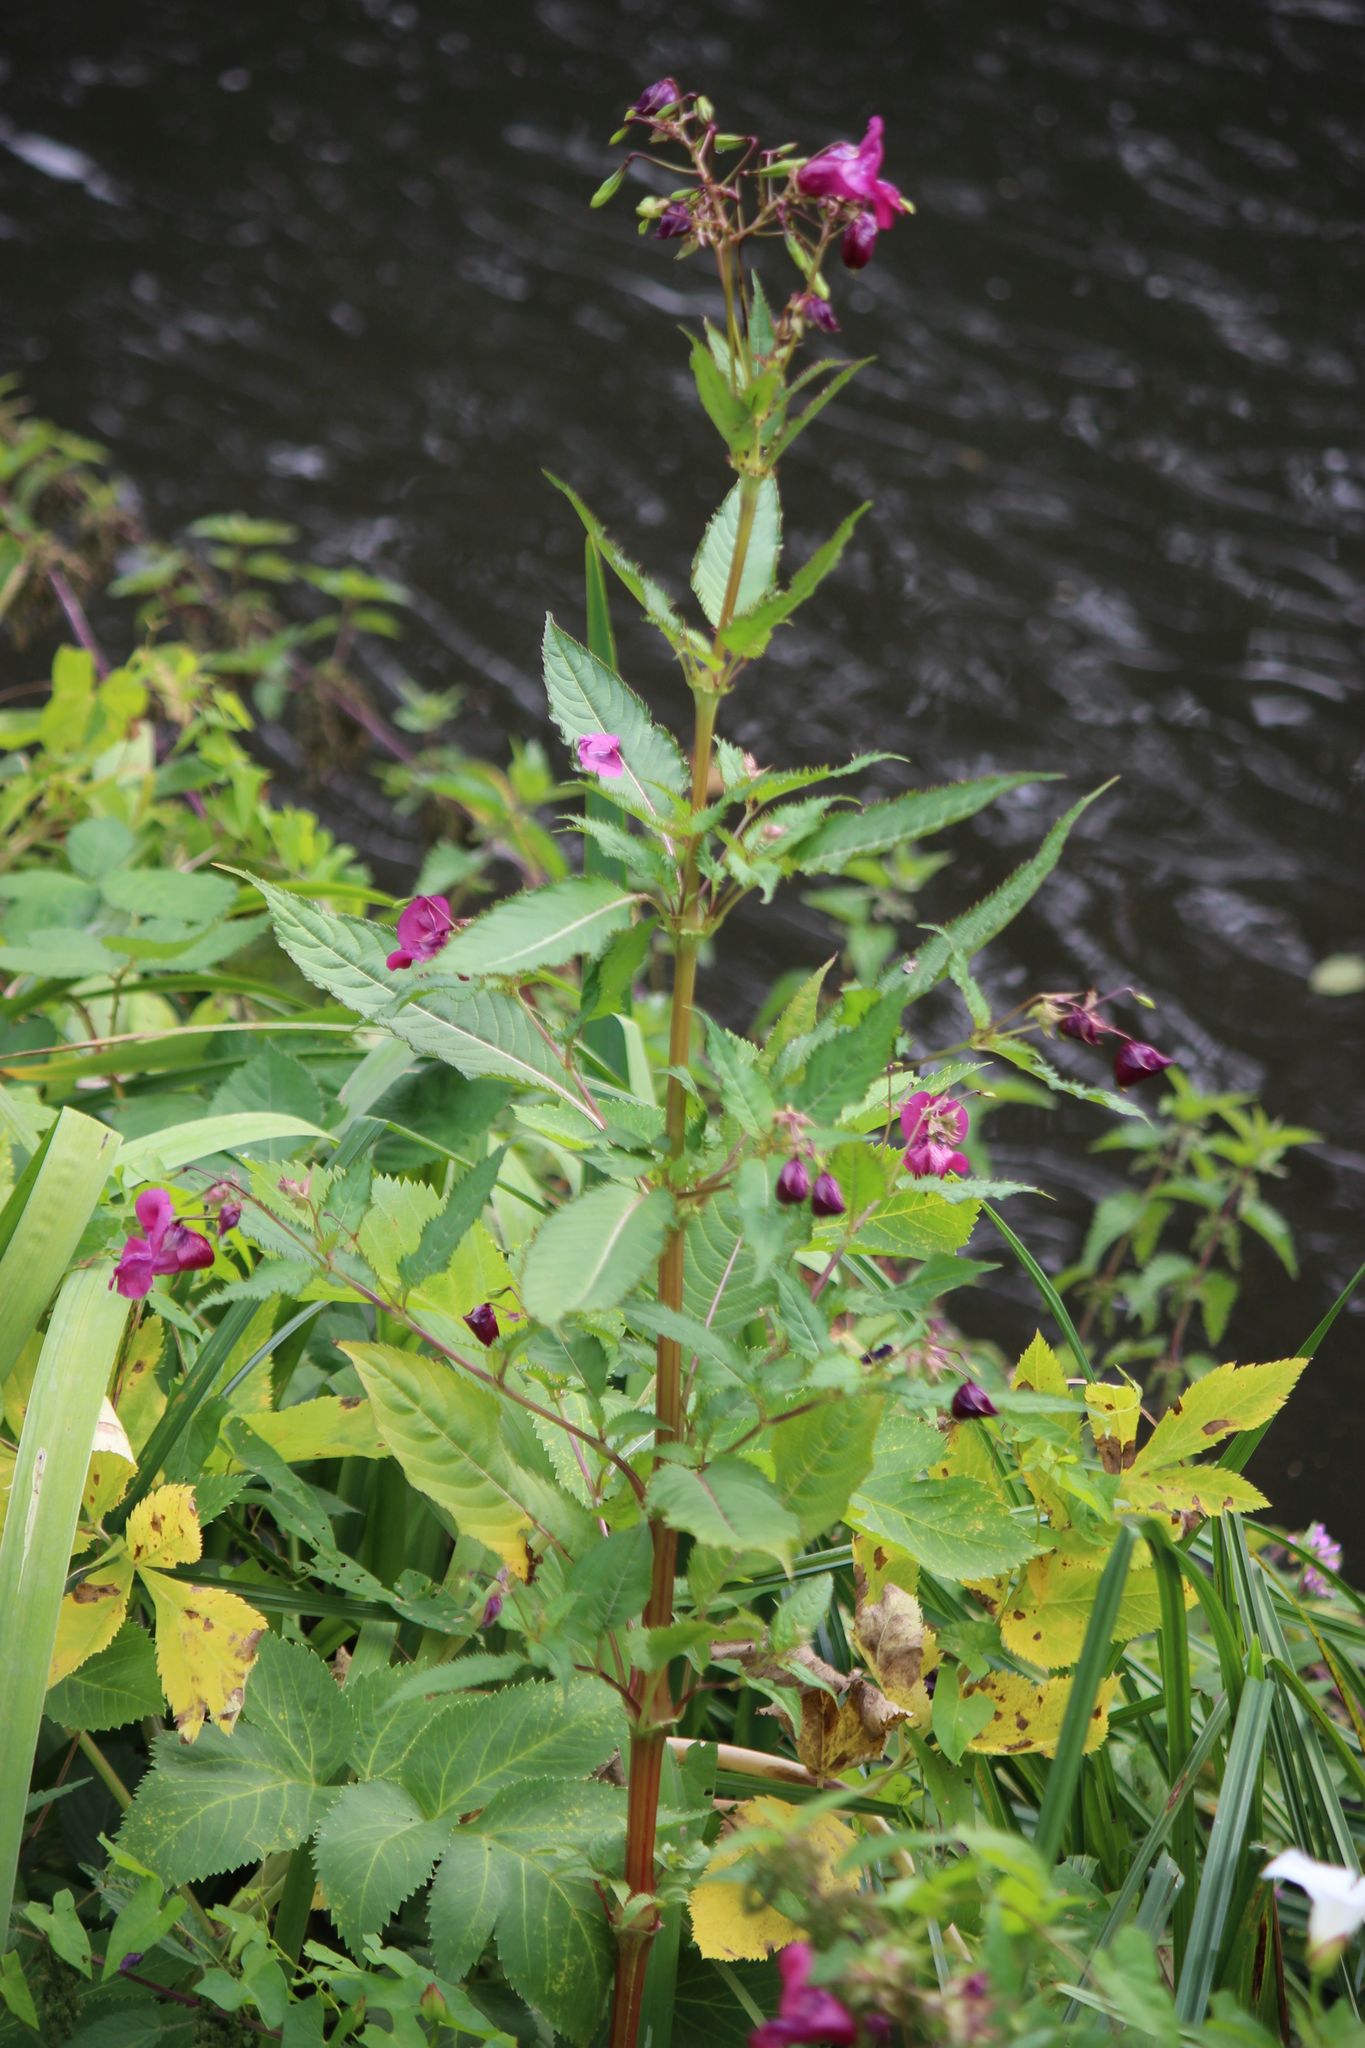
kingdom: Plantae
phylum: Tracheophyta
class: Magnoliopsida
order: Ericales
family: Balsaminaceae
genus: Impatiens
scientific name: Impatiens glandulifera
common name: Himalayan balsam
